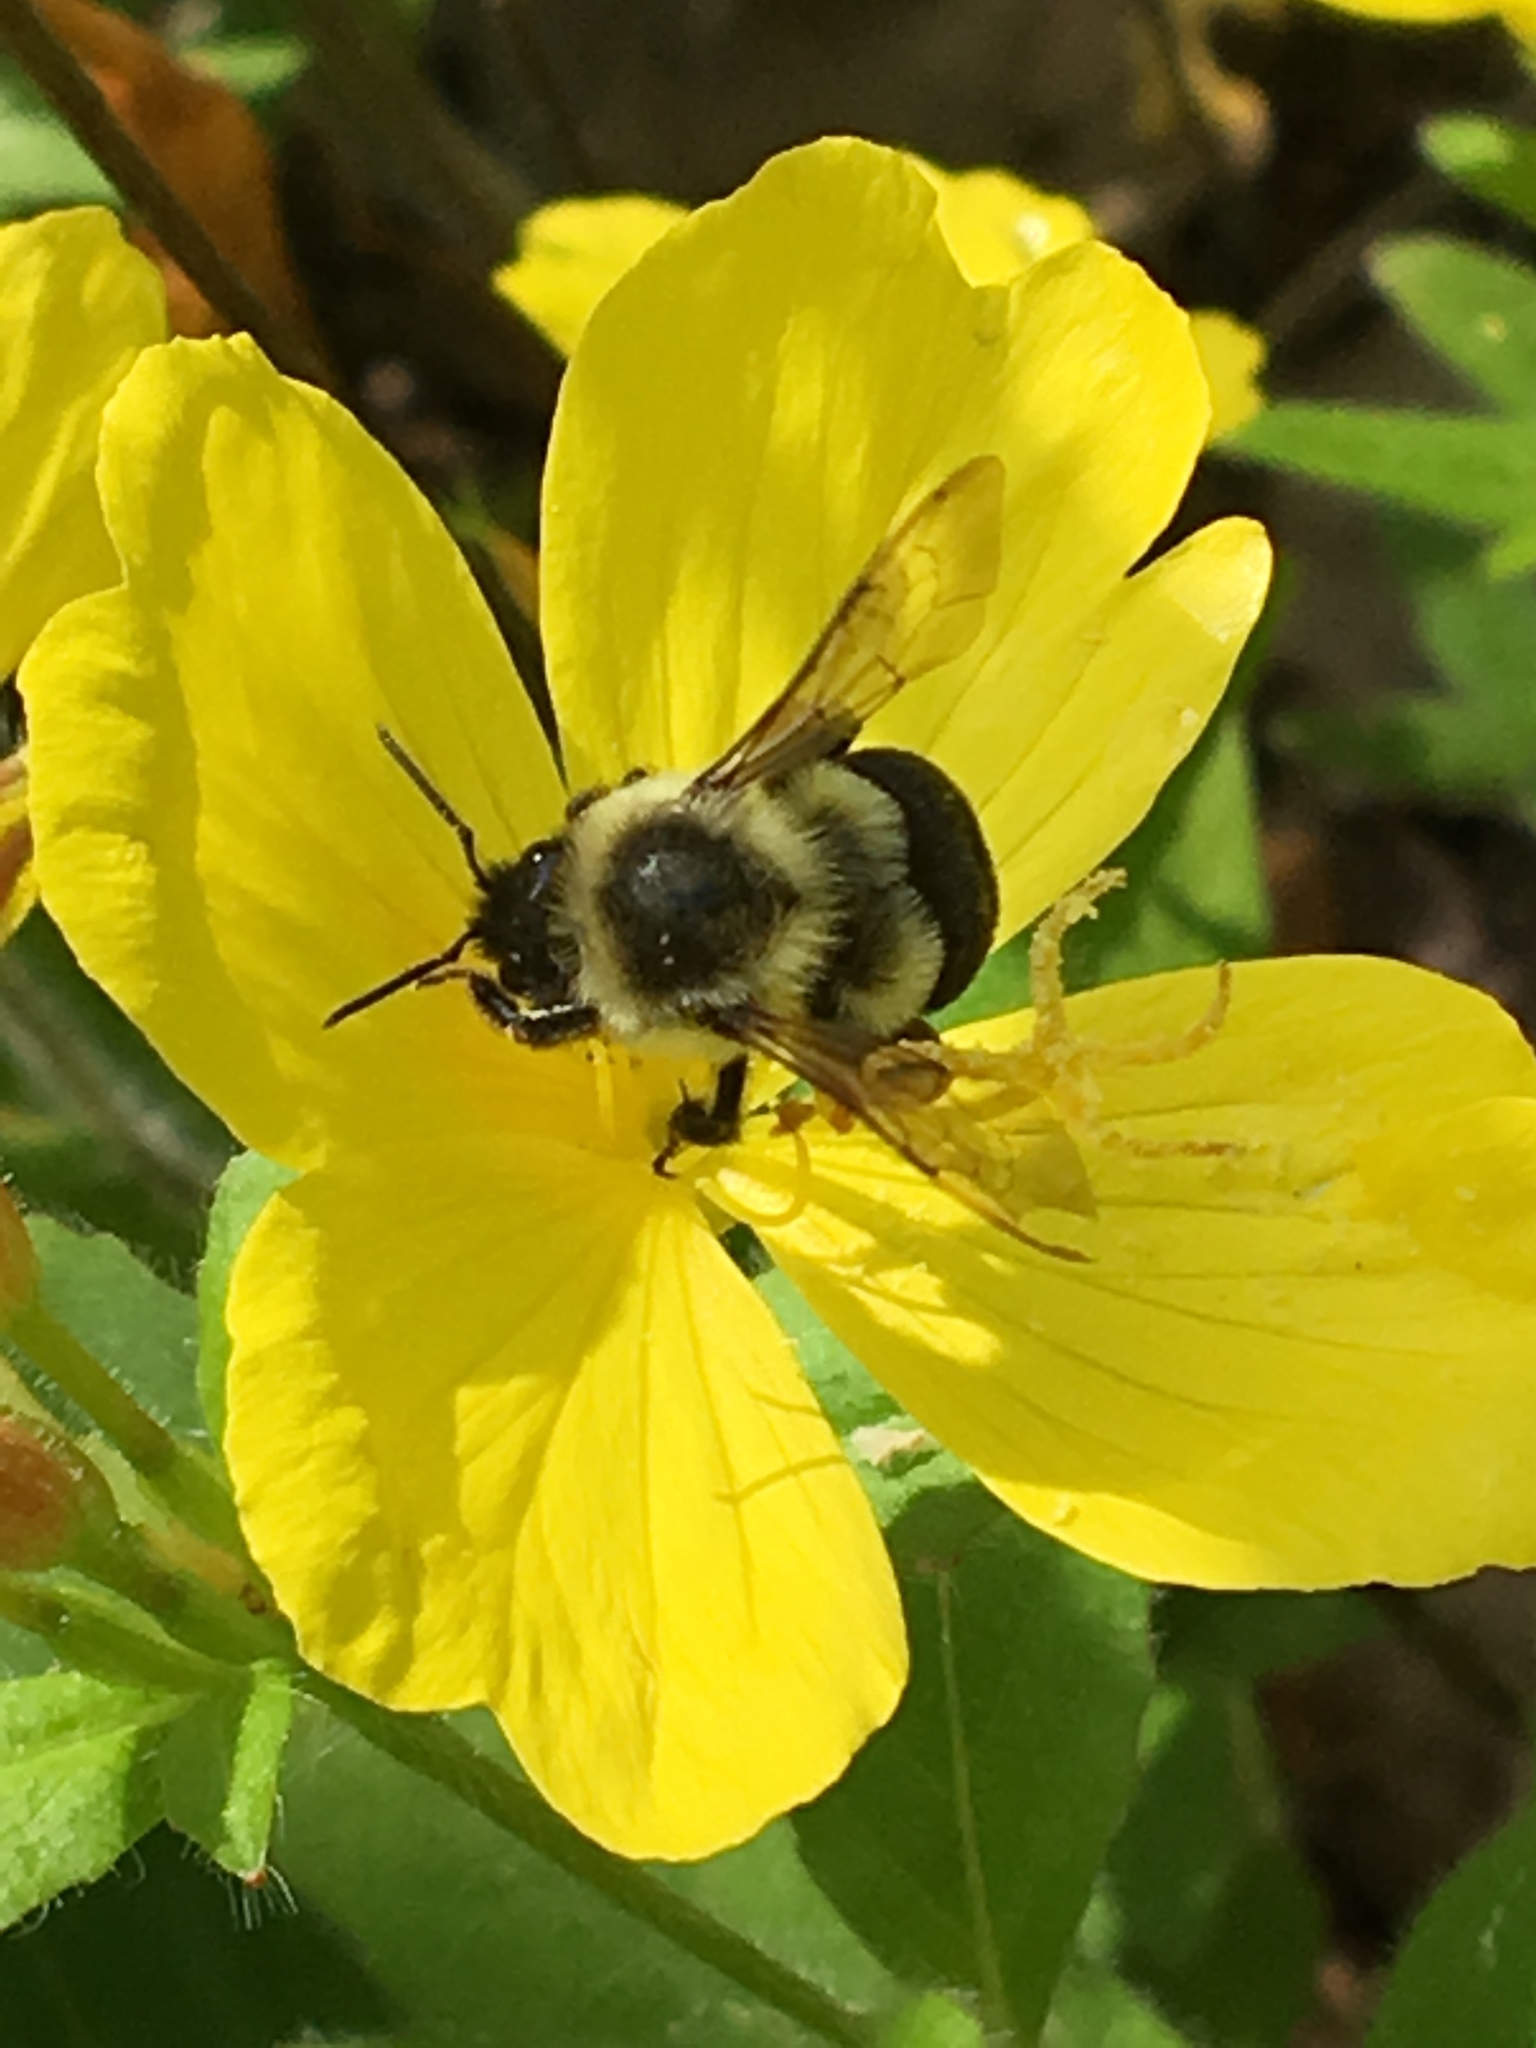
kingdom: Animalia
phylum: Arthropoda
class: Insecta
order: Hymenoptera
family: Apidae
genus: Bombus
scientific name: Bombus impatiens
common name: Common eastern bumble bee
